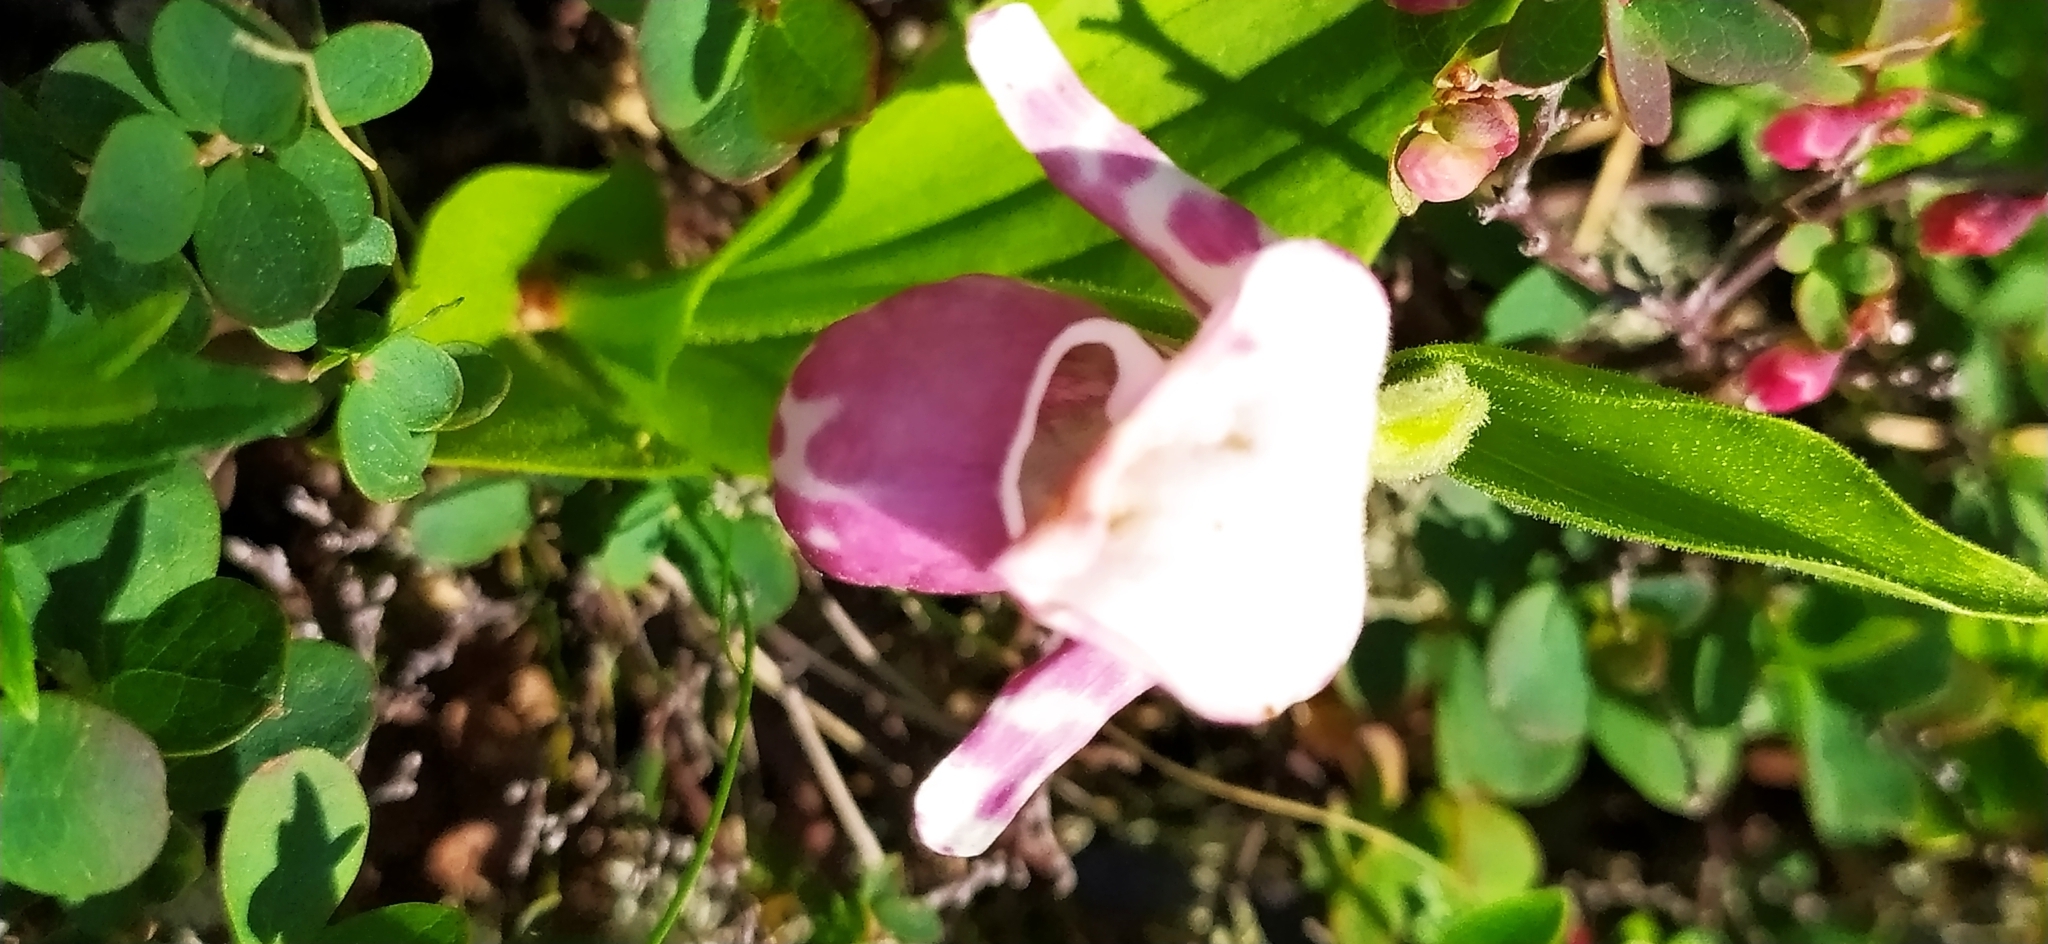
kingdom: Plantae
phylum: Tracheophyta
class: Liliopsida
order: Asparagales
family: Orchidaceae
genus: Cypripedium
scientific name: Cypripedium guttatum
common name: Pink lady slipper
